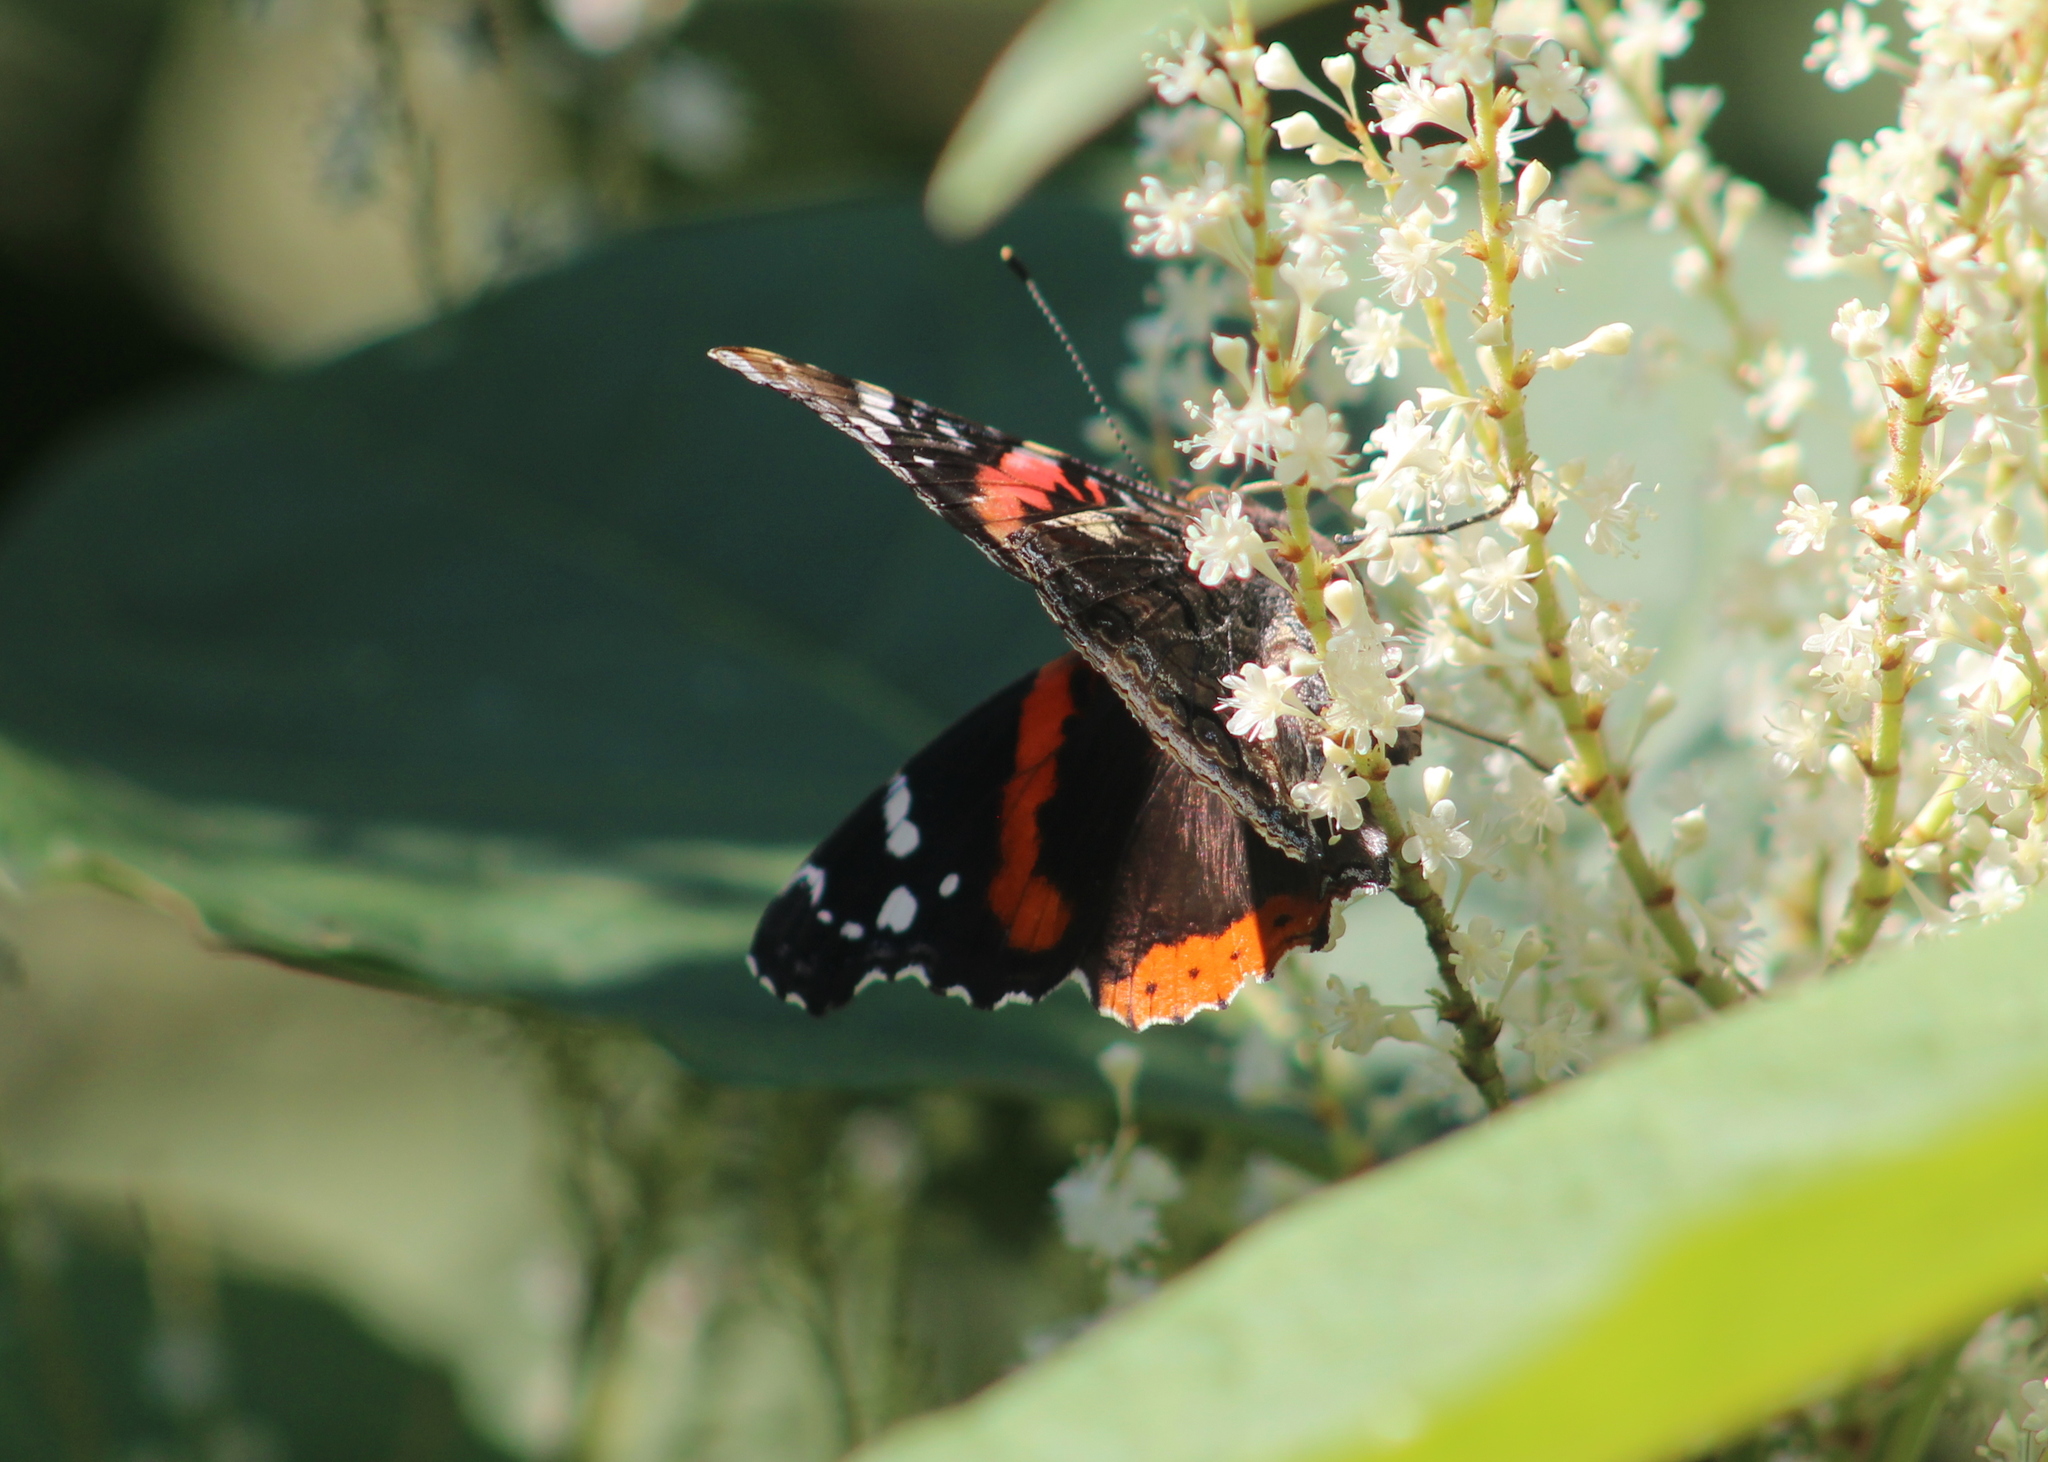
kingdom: Animalia
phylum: Arthropoda
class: Insecta
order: Lepidoptera
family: Nymphalidae
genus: Vanessa
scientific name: Vanessa atalanta
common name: Red admiral
